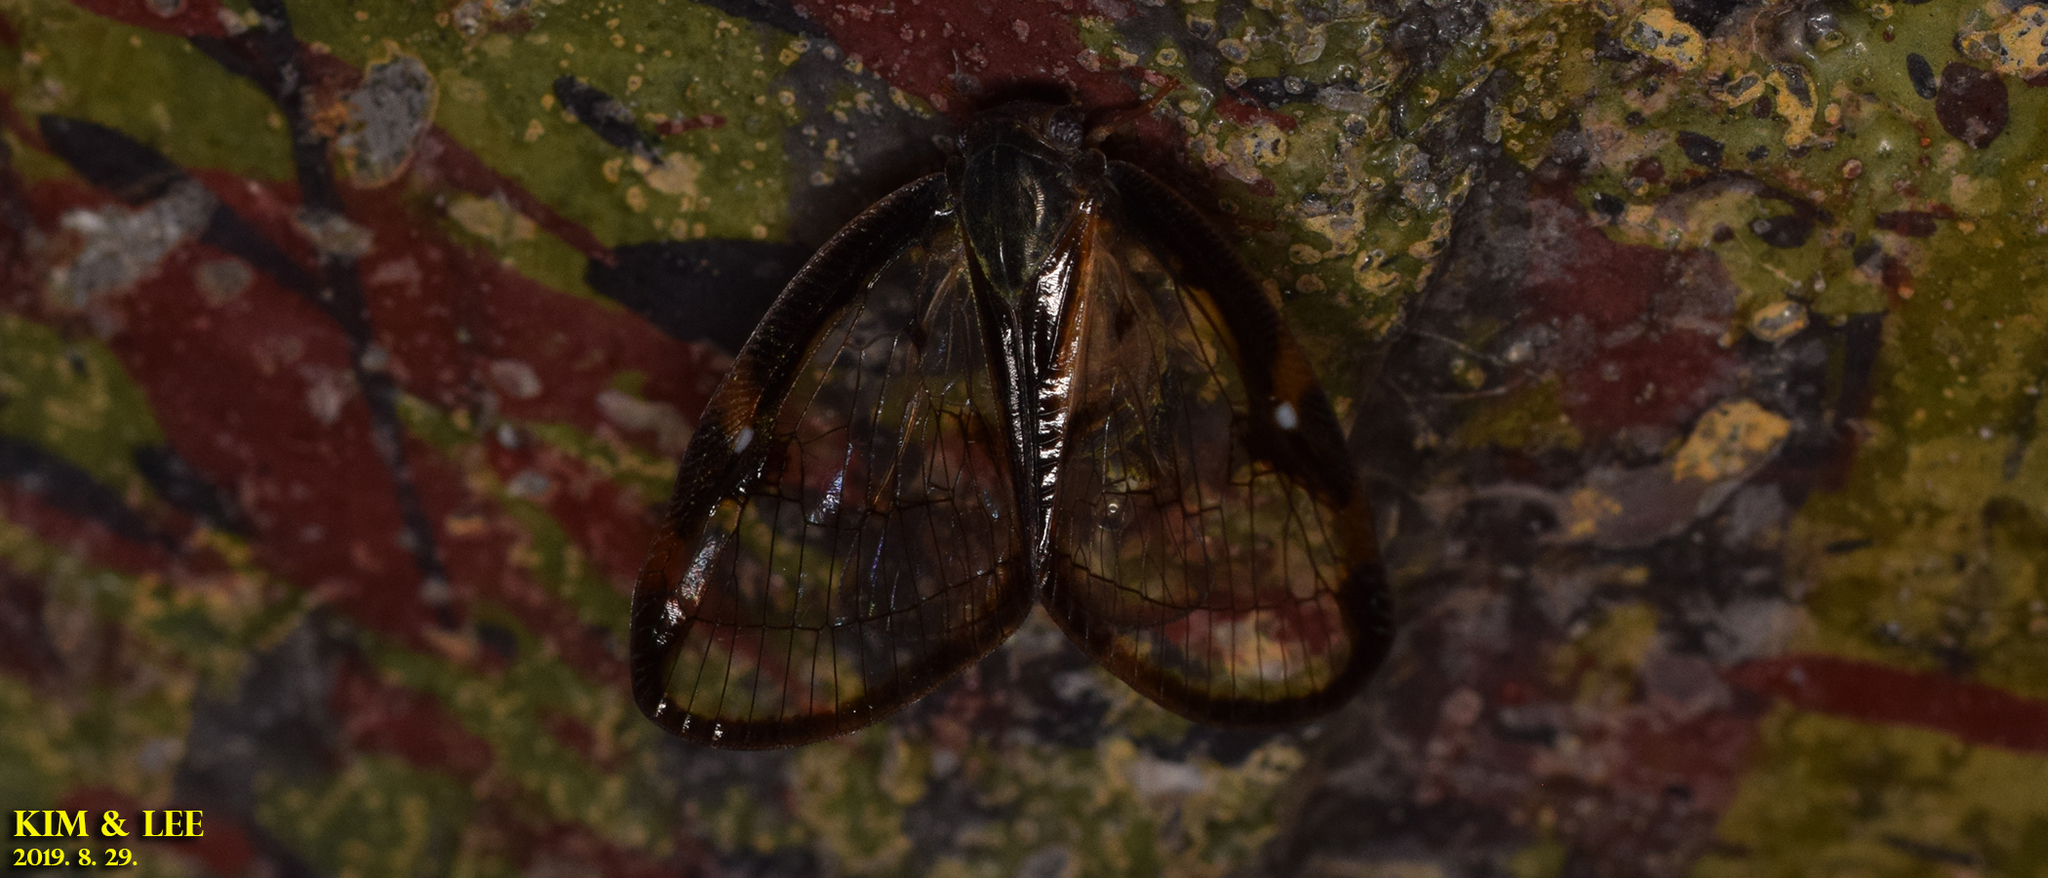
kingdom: Animalia
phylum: Arthropoda
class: Insecta
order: Hemiptera
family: Ricaniidae
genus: Euricania
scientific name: Euricania facialis
